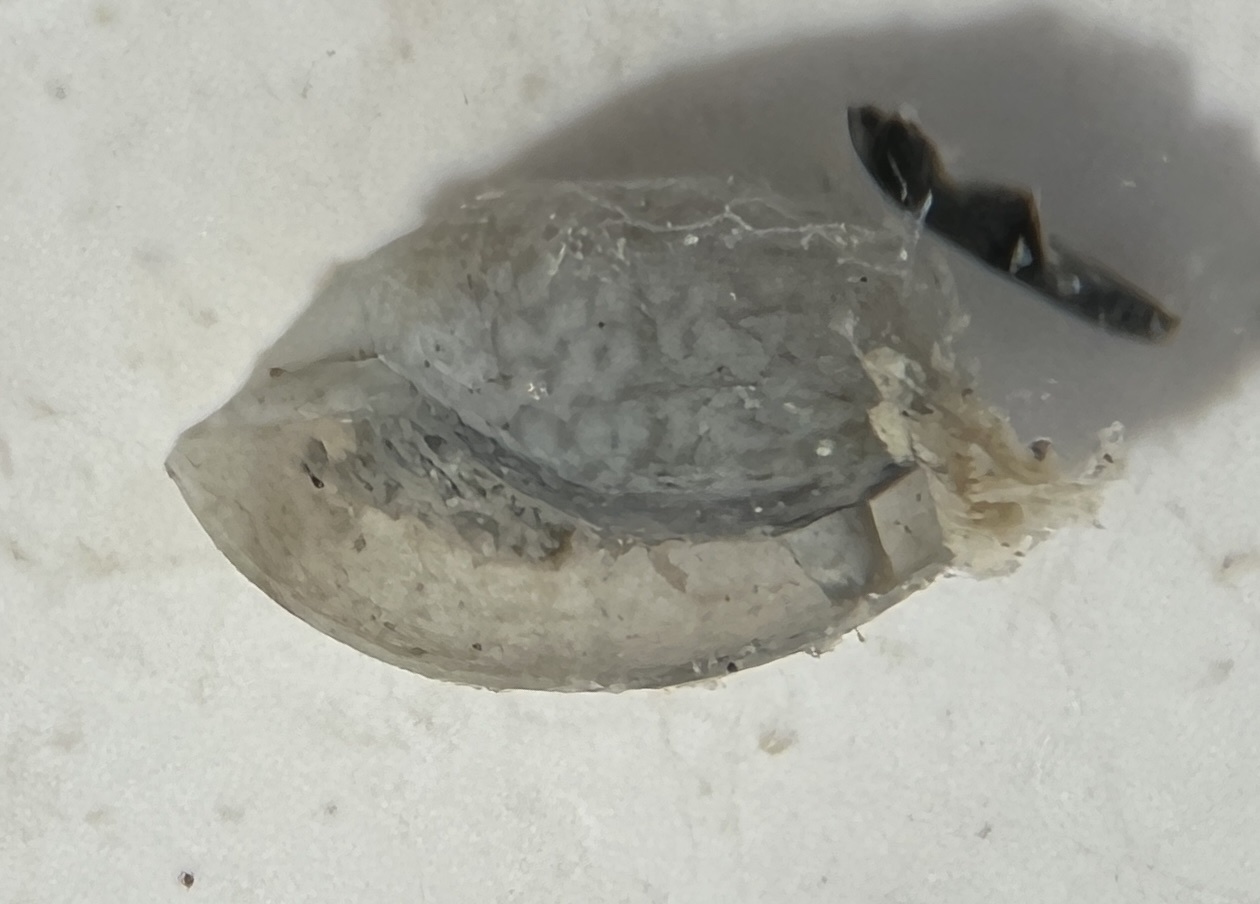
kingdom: Animalia
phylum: Mollusca
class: Gastropoda
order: Cephalaspidea
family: Haminoeidae
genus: Haminoea
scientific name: Haminoea antillarum
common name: Antilles glassy-bubble
